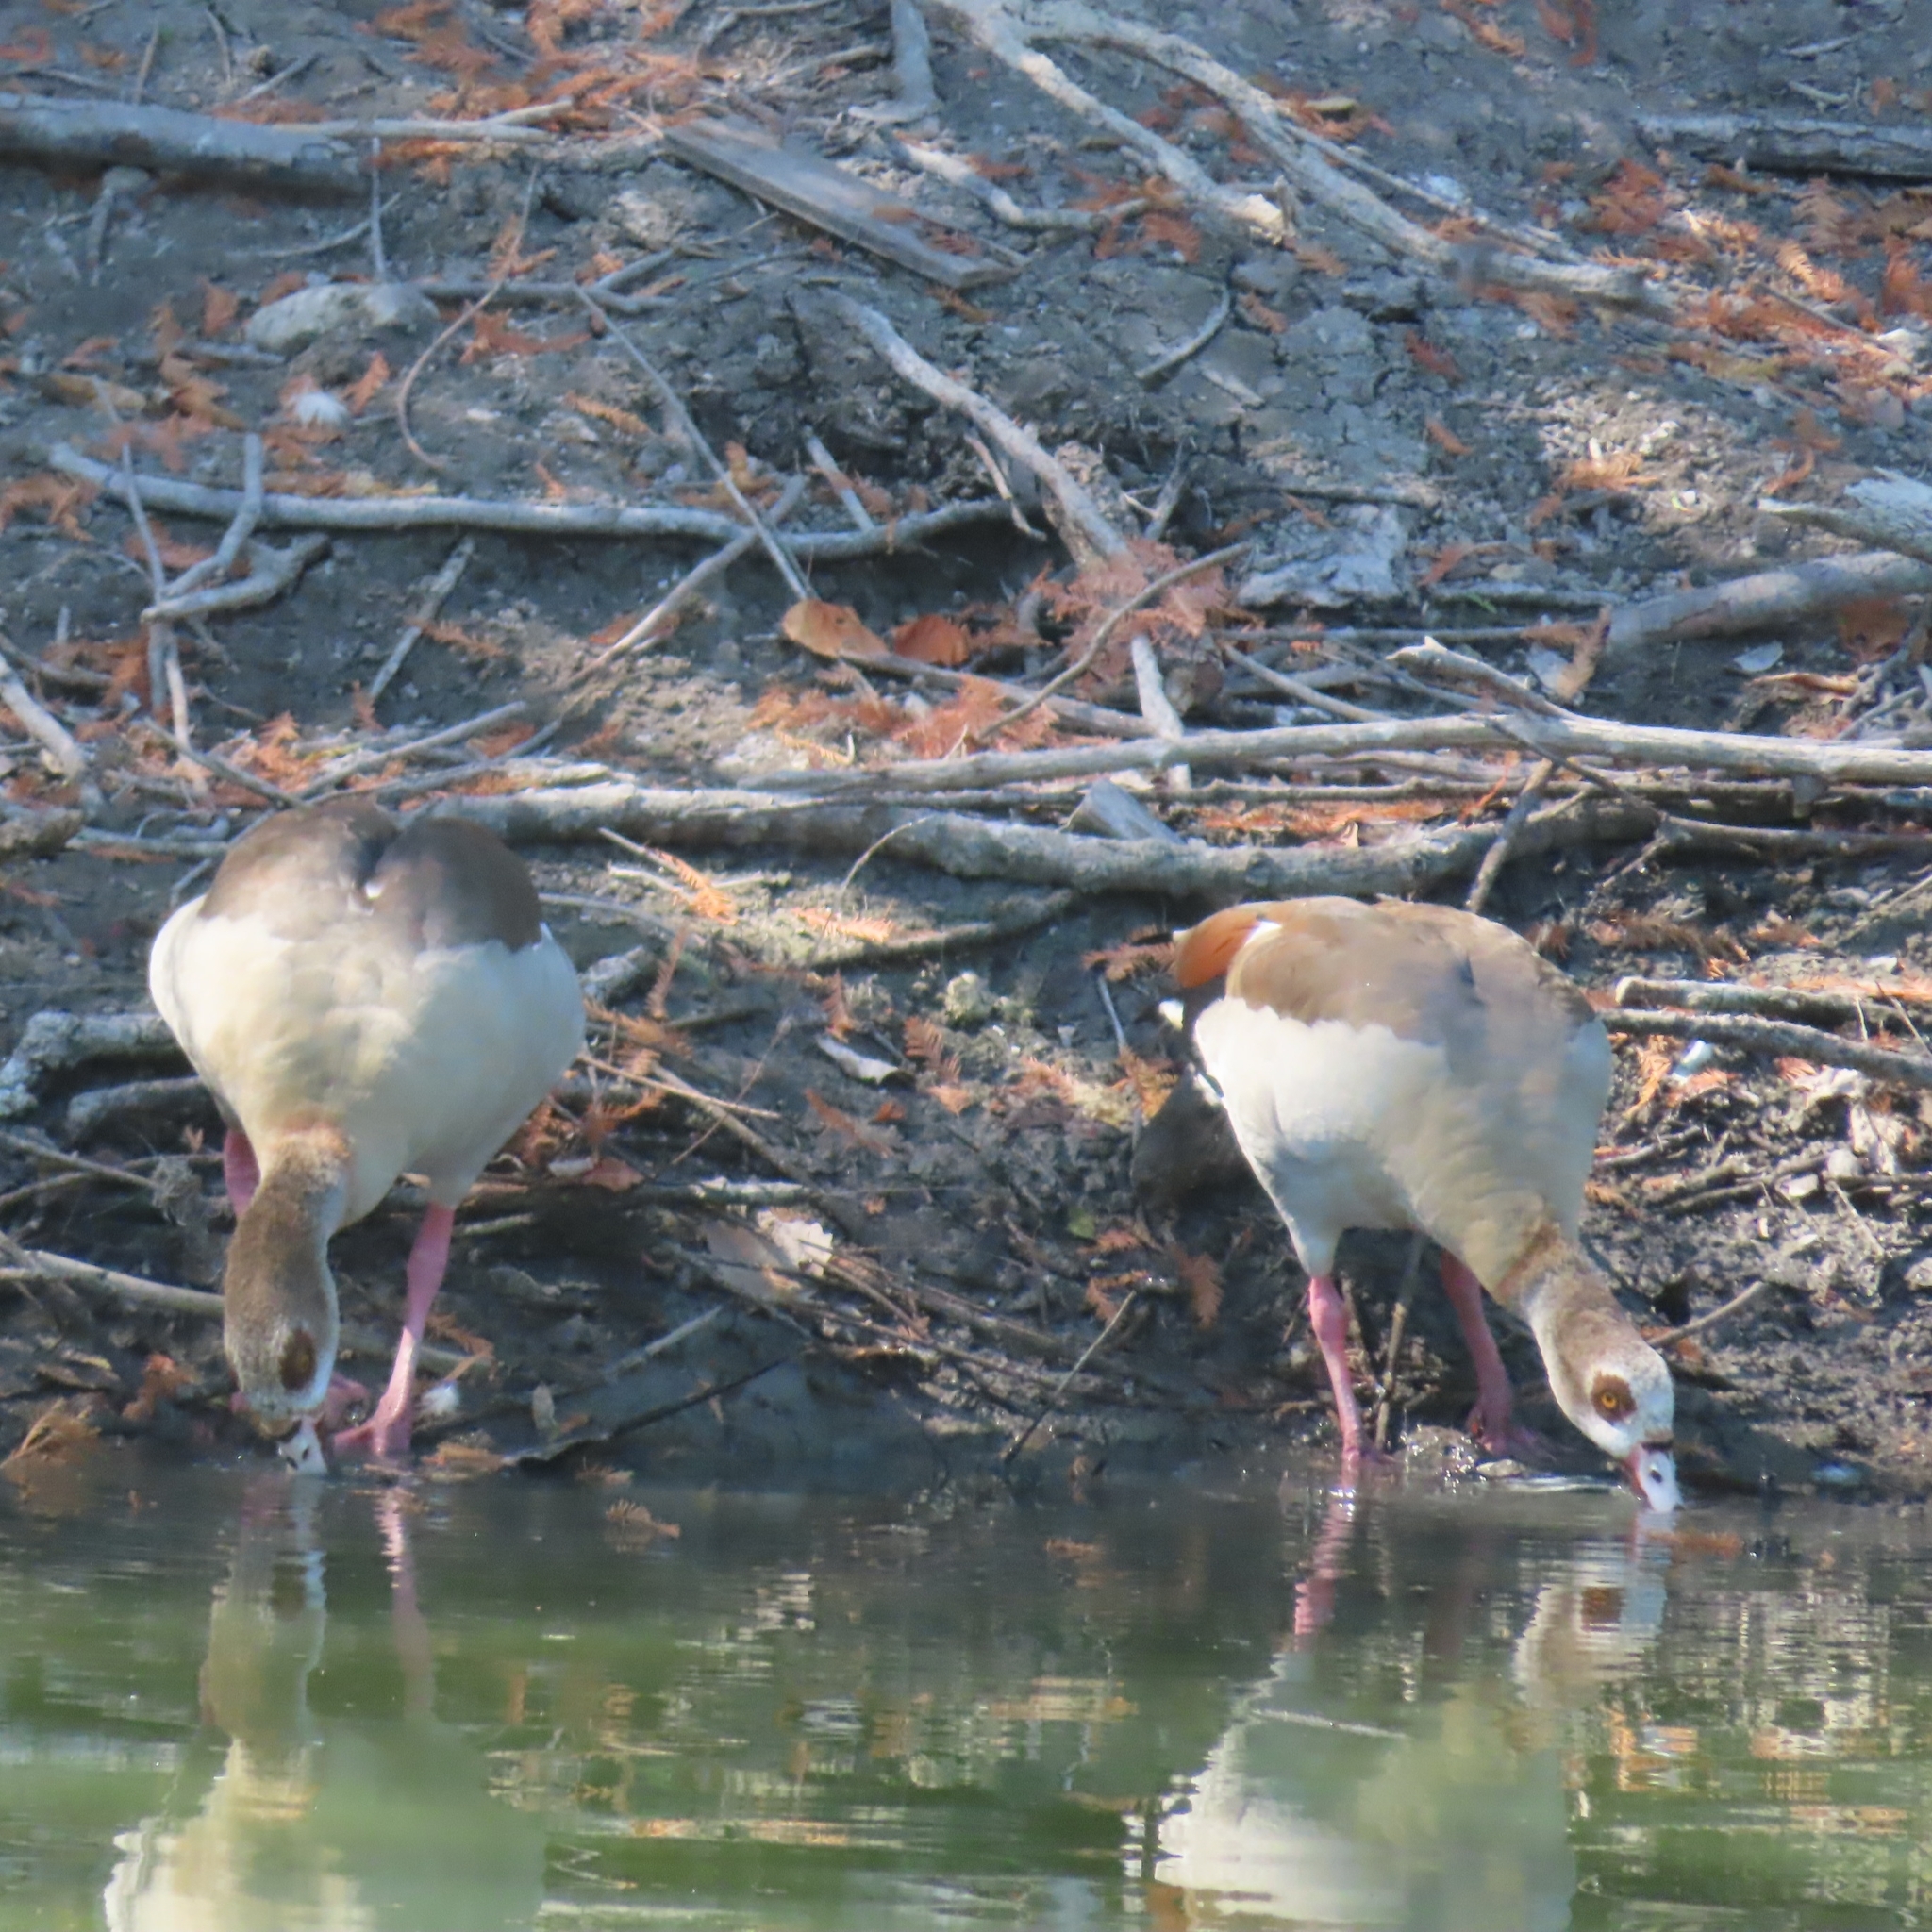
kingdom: Animalia
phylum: Chordata
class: Aves
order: Anseriformes
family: Anatidae
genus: Alopochen
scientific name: Alopochen aegyptiaca
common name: Egyptian goose
